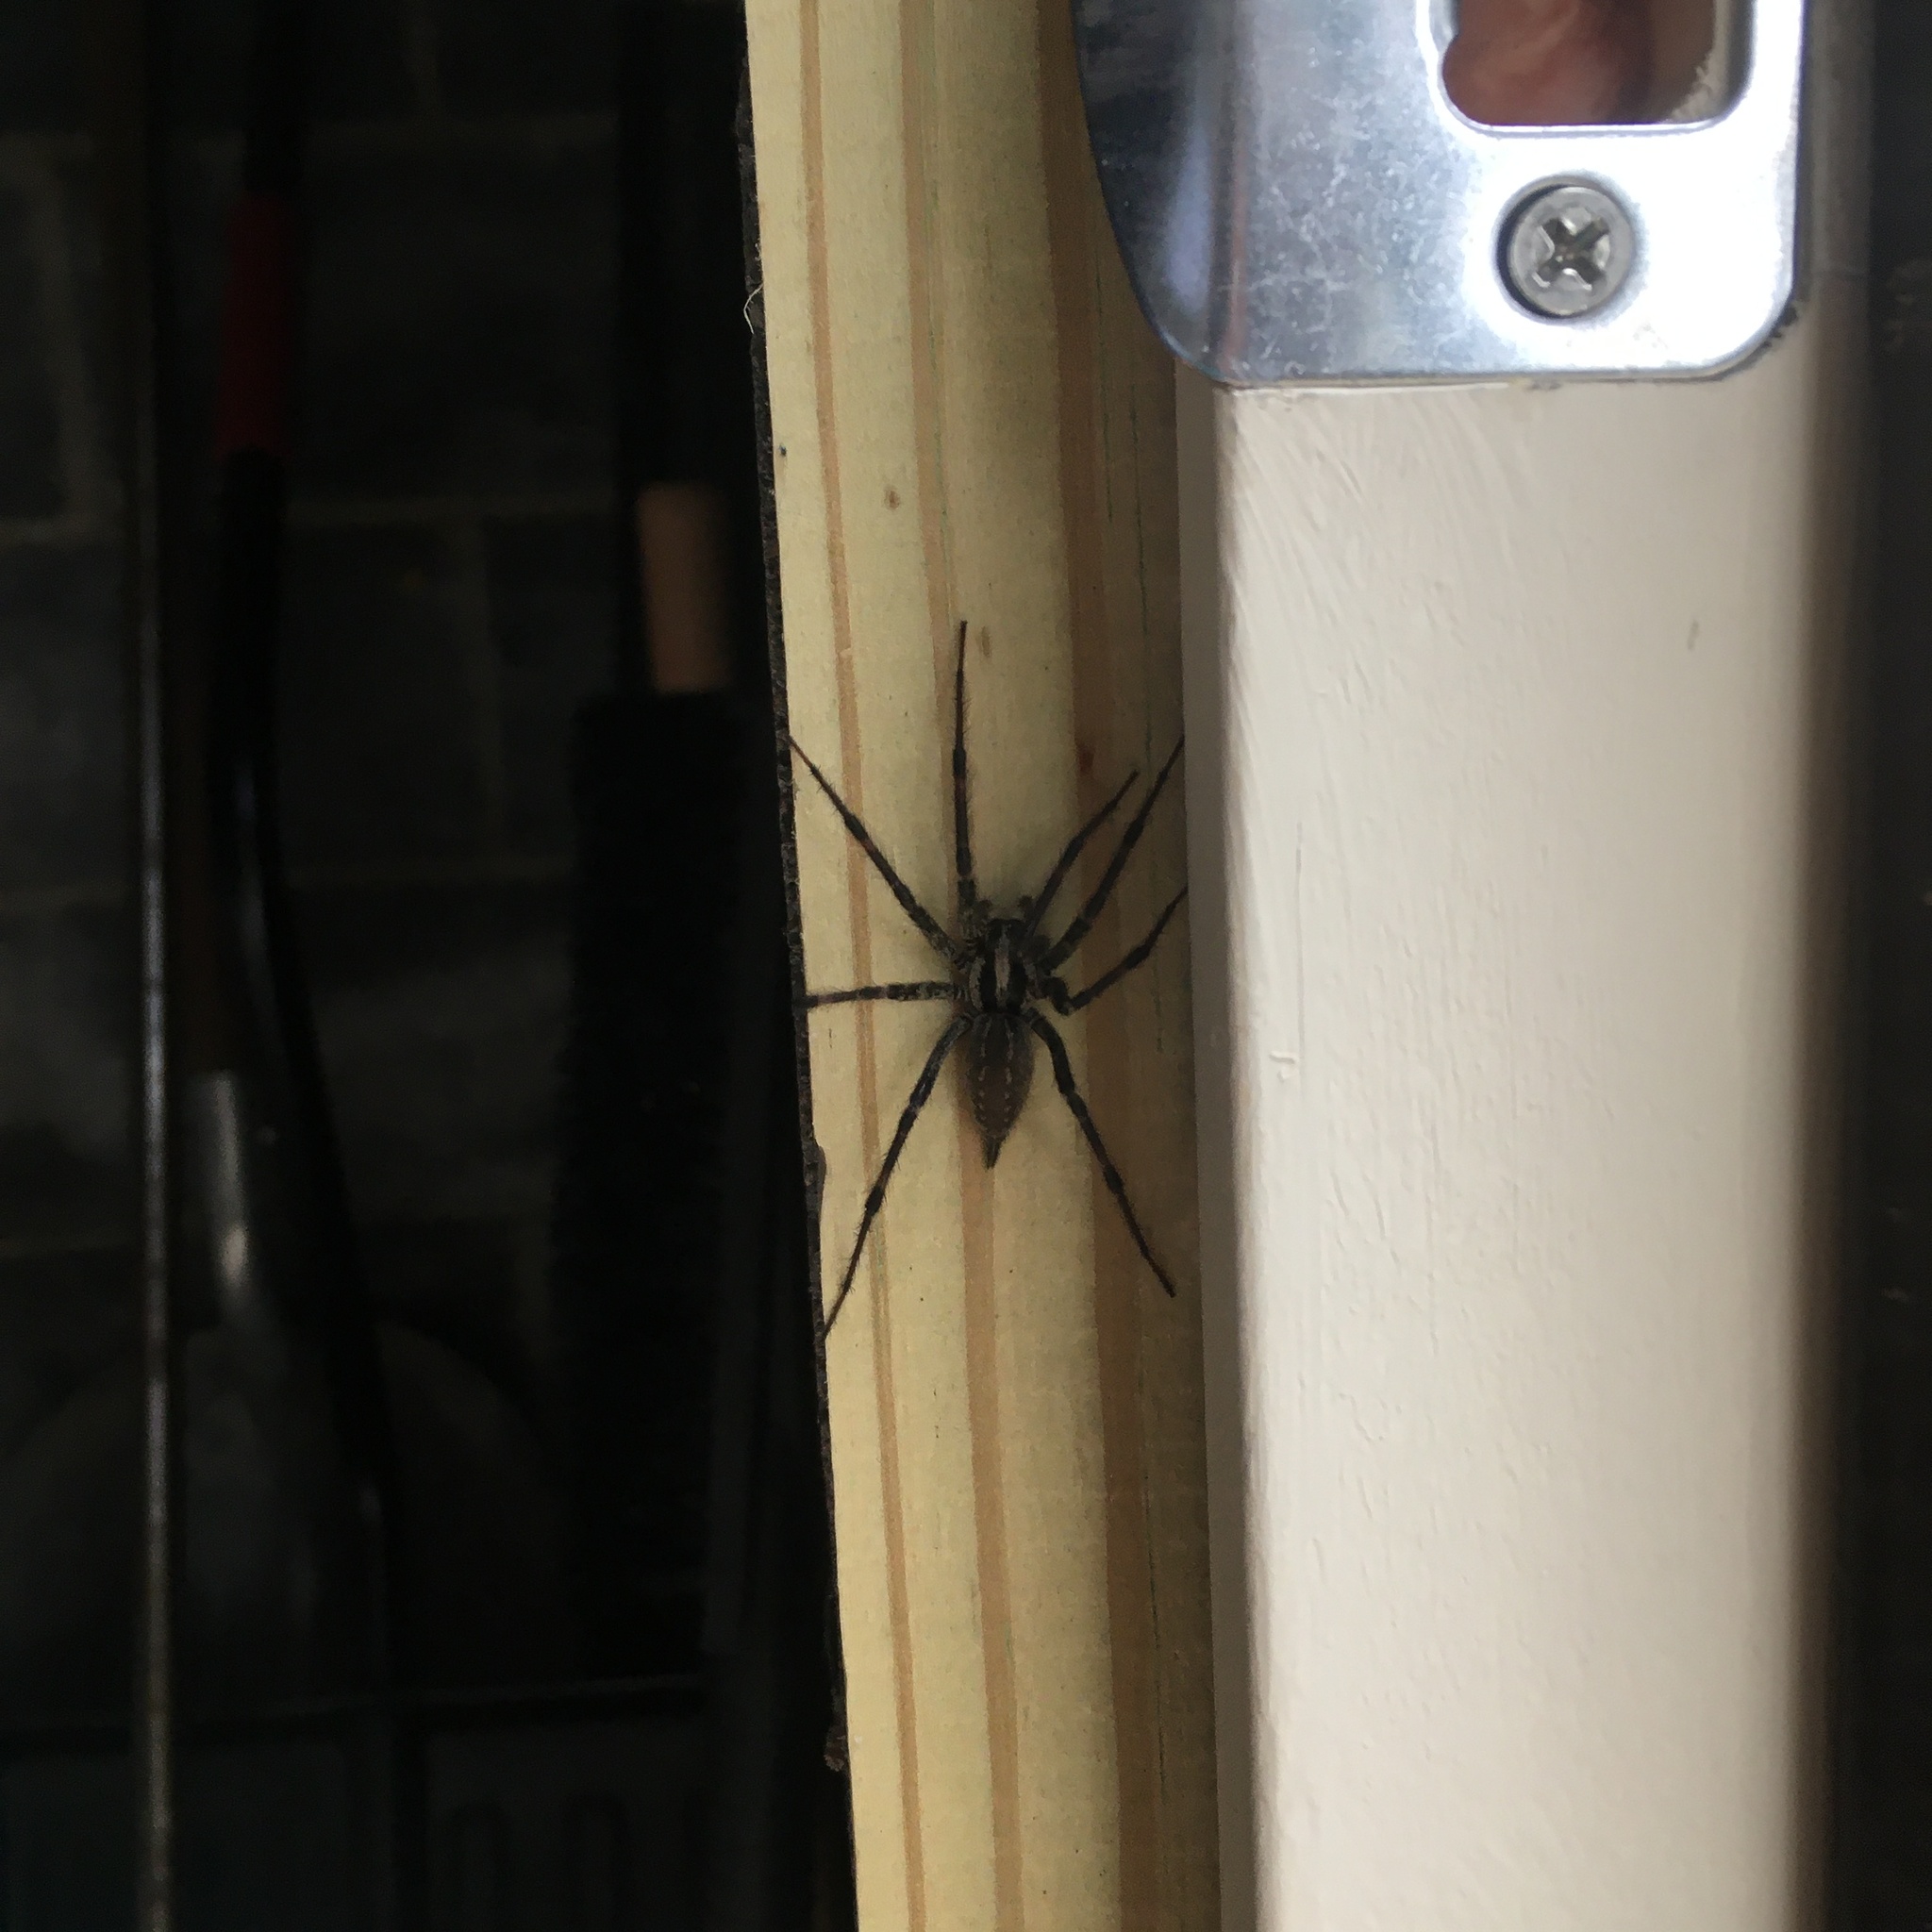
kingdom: Animalia
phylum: Arthropoda
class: Arachnida
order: Araneae
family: Agelenidae
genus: Agelenopsis
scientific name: Agelenopsis
